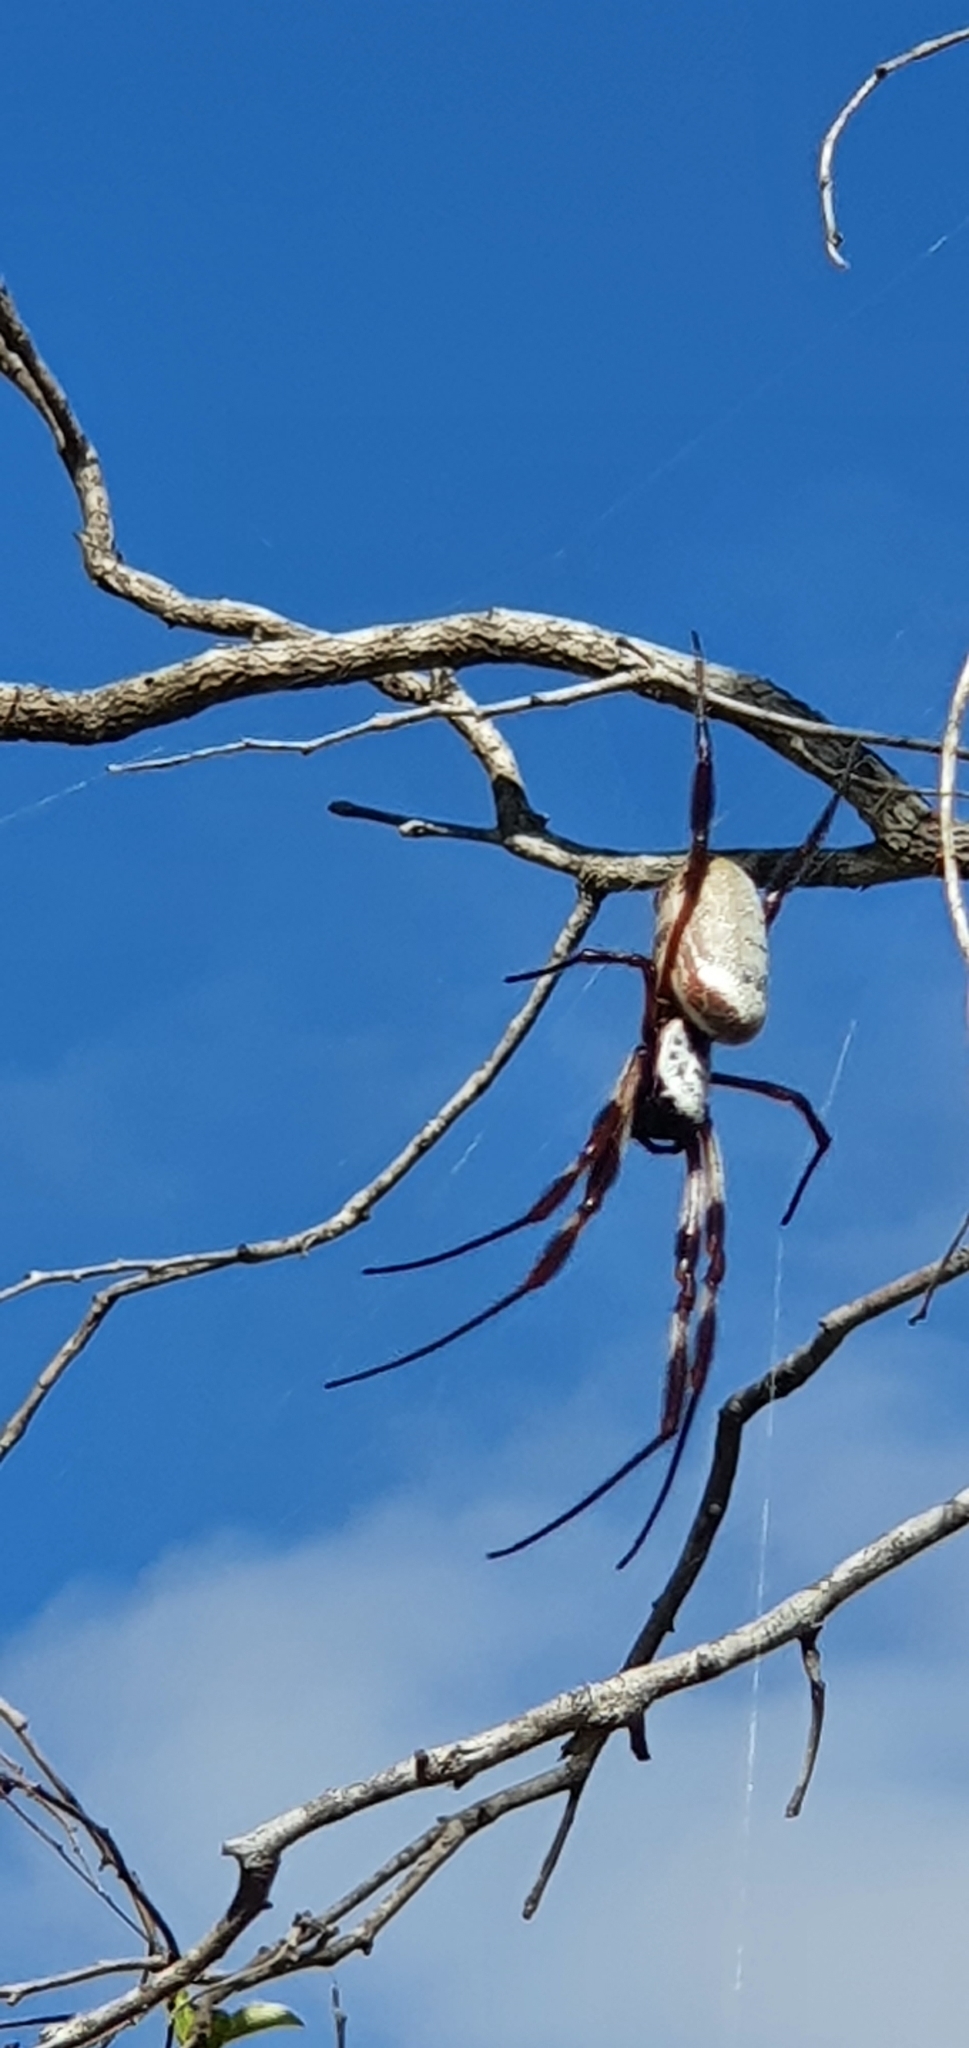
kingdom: Animalia
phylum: Arthropoda
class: Arachnida
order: Araneae
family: Araneidae
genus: Trichonephila
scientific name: Trichonephila edulis
